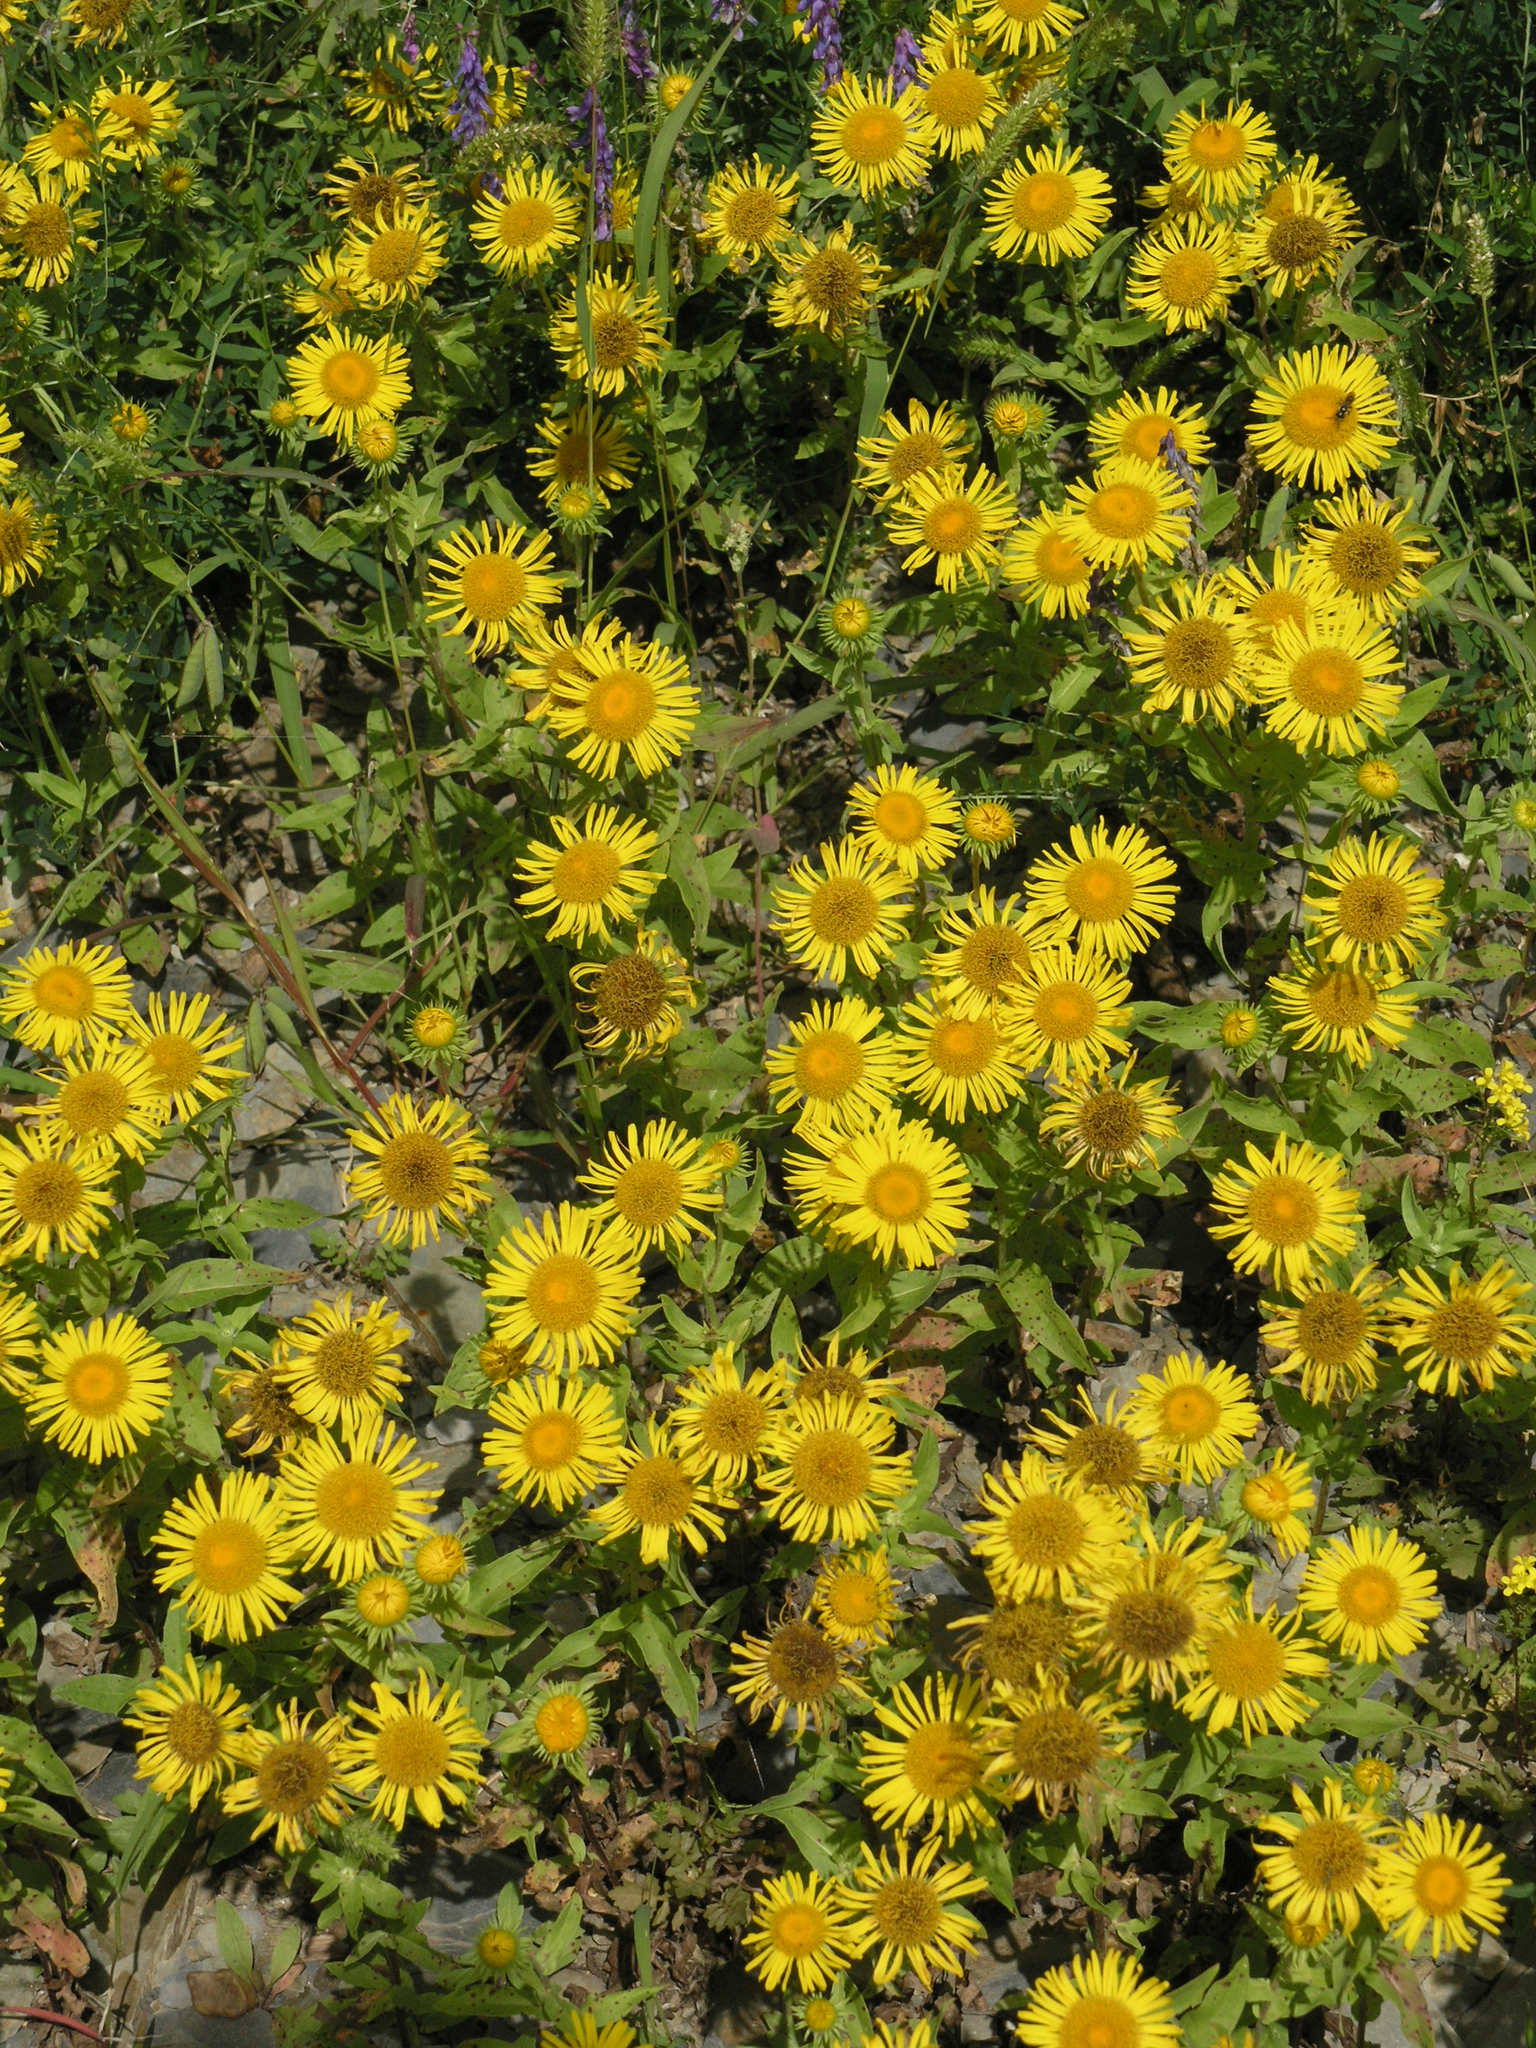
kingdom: Plantae
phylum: Tracheophyta
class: Magnoliopsida
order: Asterales
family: Asteraceae
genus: Pentanema
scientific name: Pentanema britannicum
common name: British elecampane
